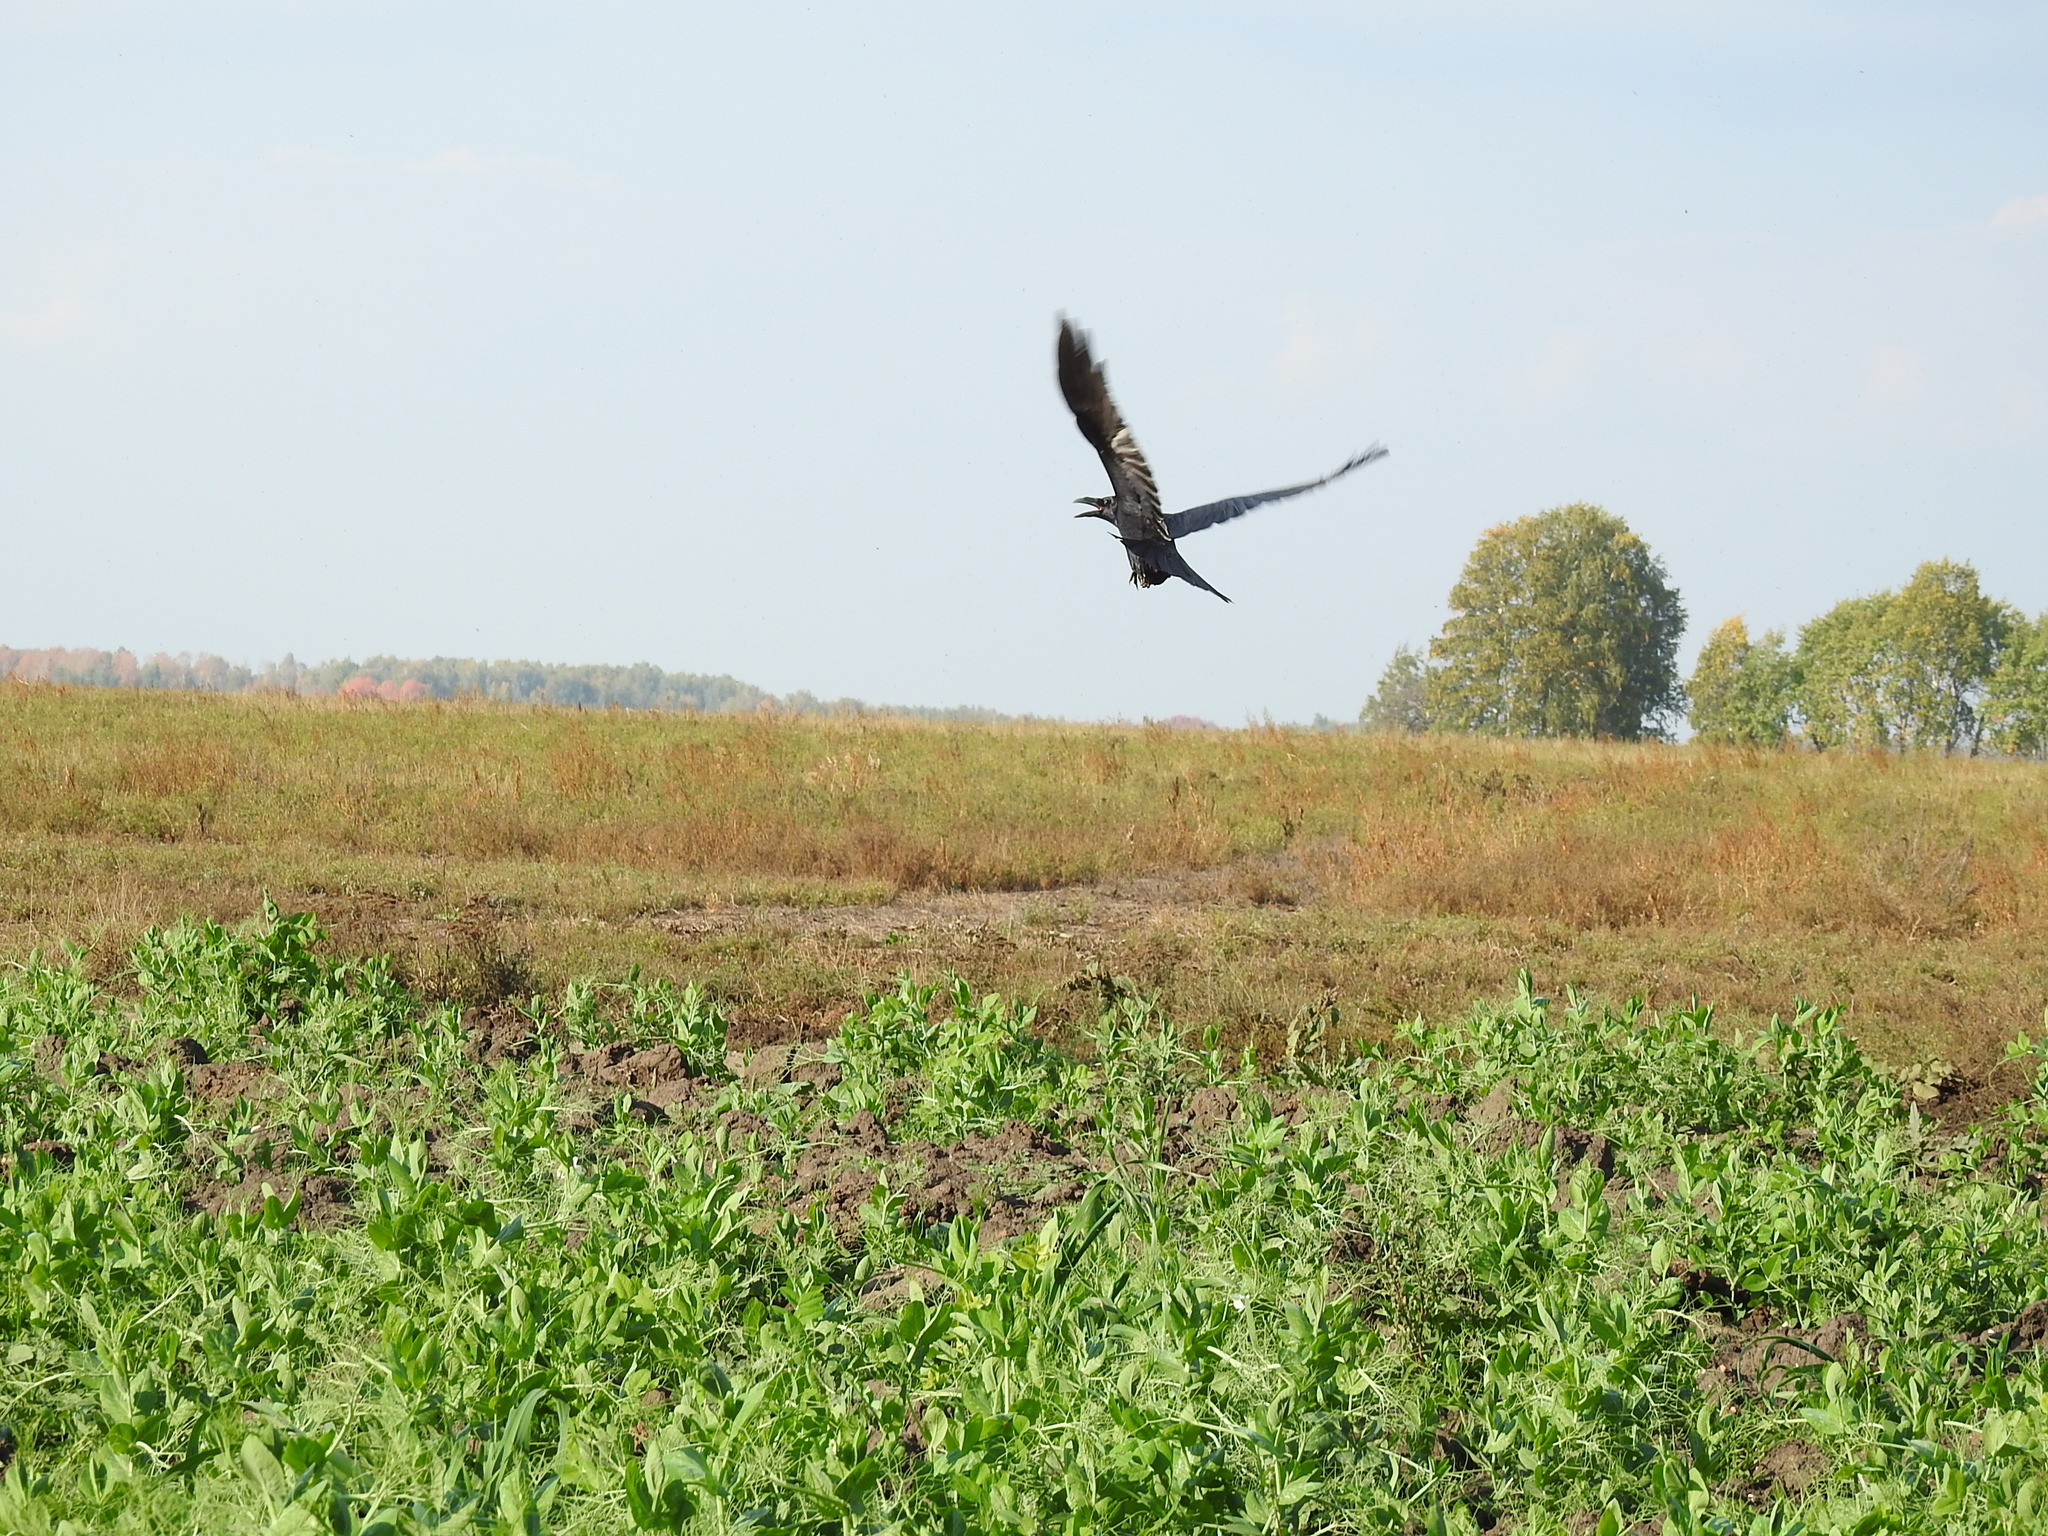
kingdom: Animalia
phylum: Chordata
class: Aves
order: Passeriformes
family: Corvidae
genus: Corvus
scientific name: Corvus corax
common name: Common raven
